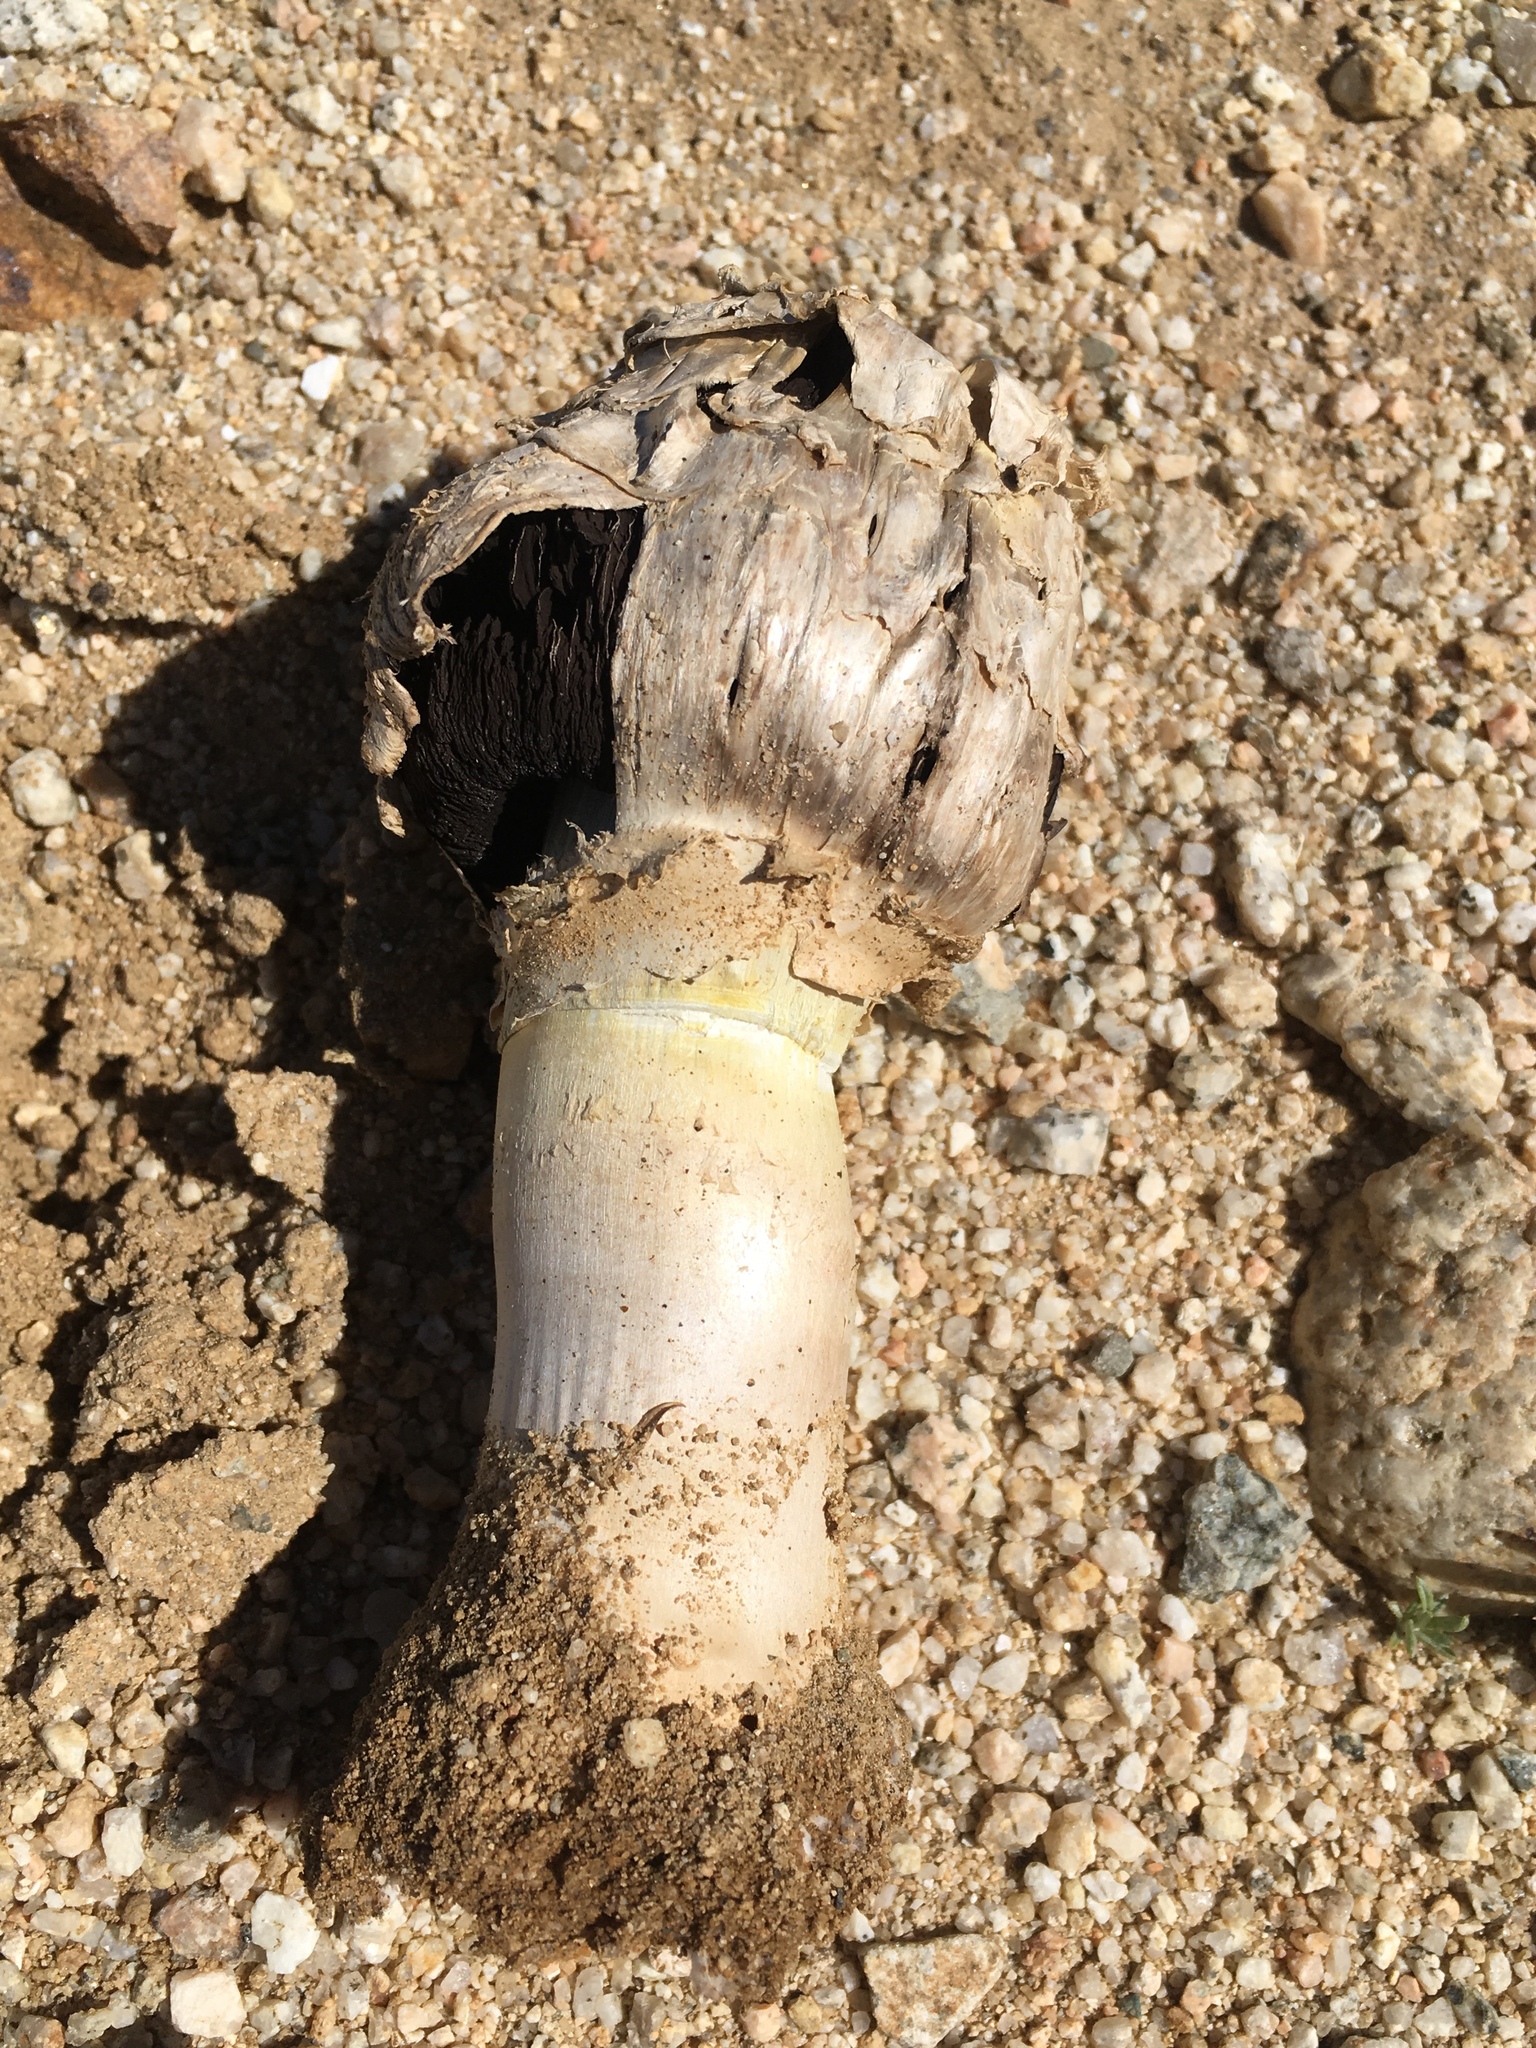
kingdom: Fungi
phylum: Basidiomycota
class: Agaricomycetes
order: Agaricales
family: Agaricaceae
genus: Agaricus
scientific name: Agaricus deserticola
